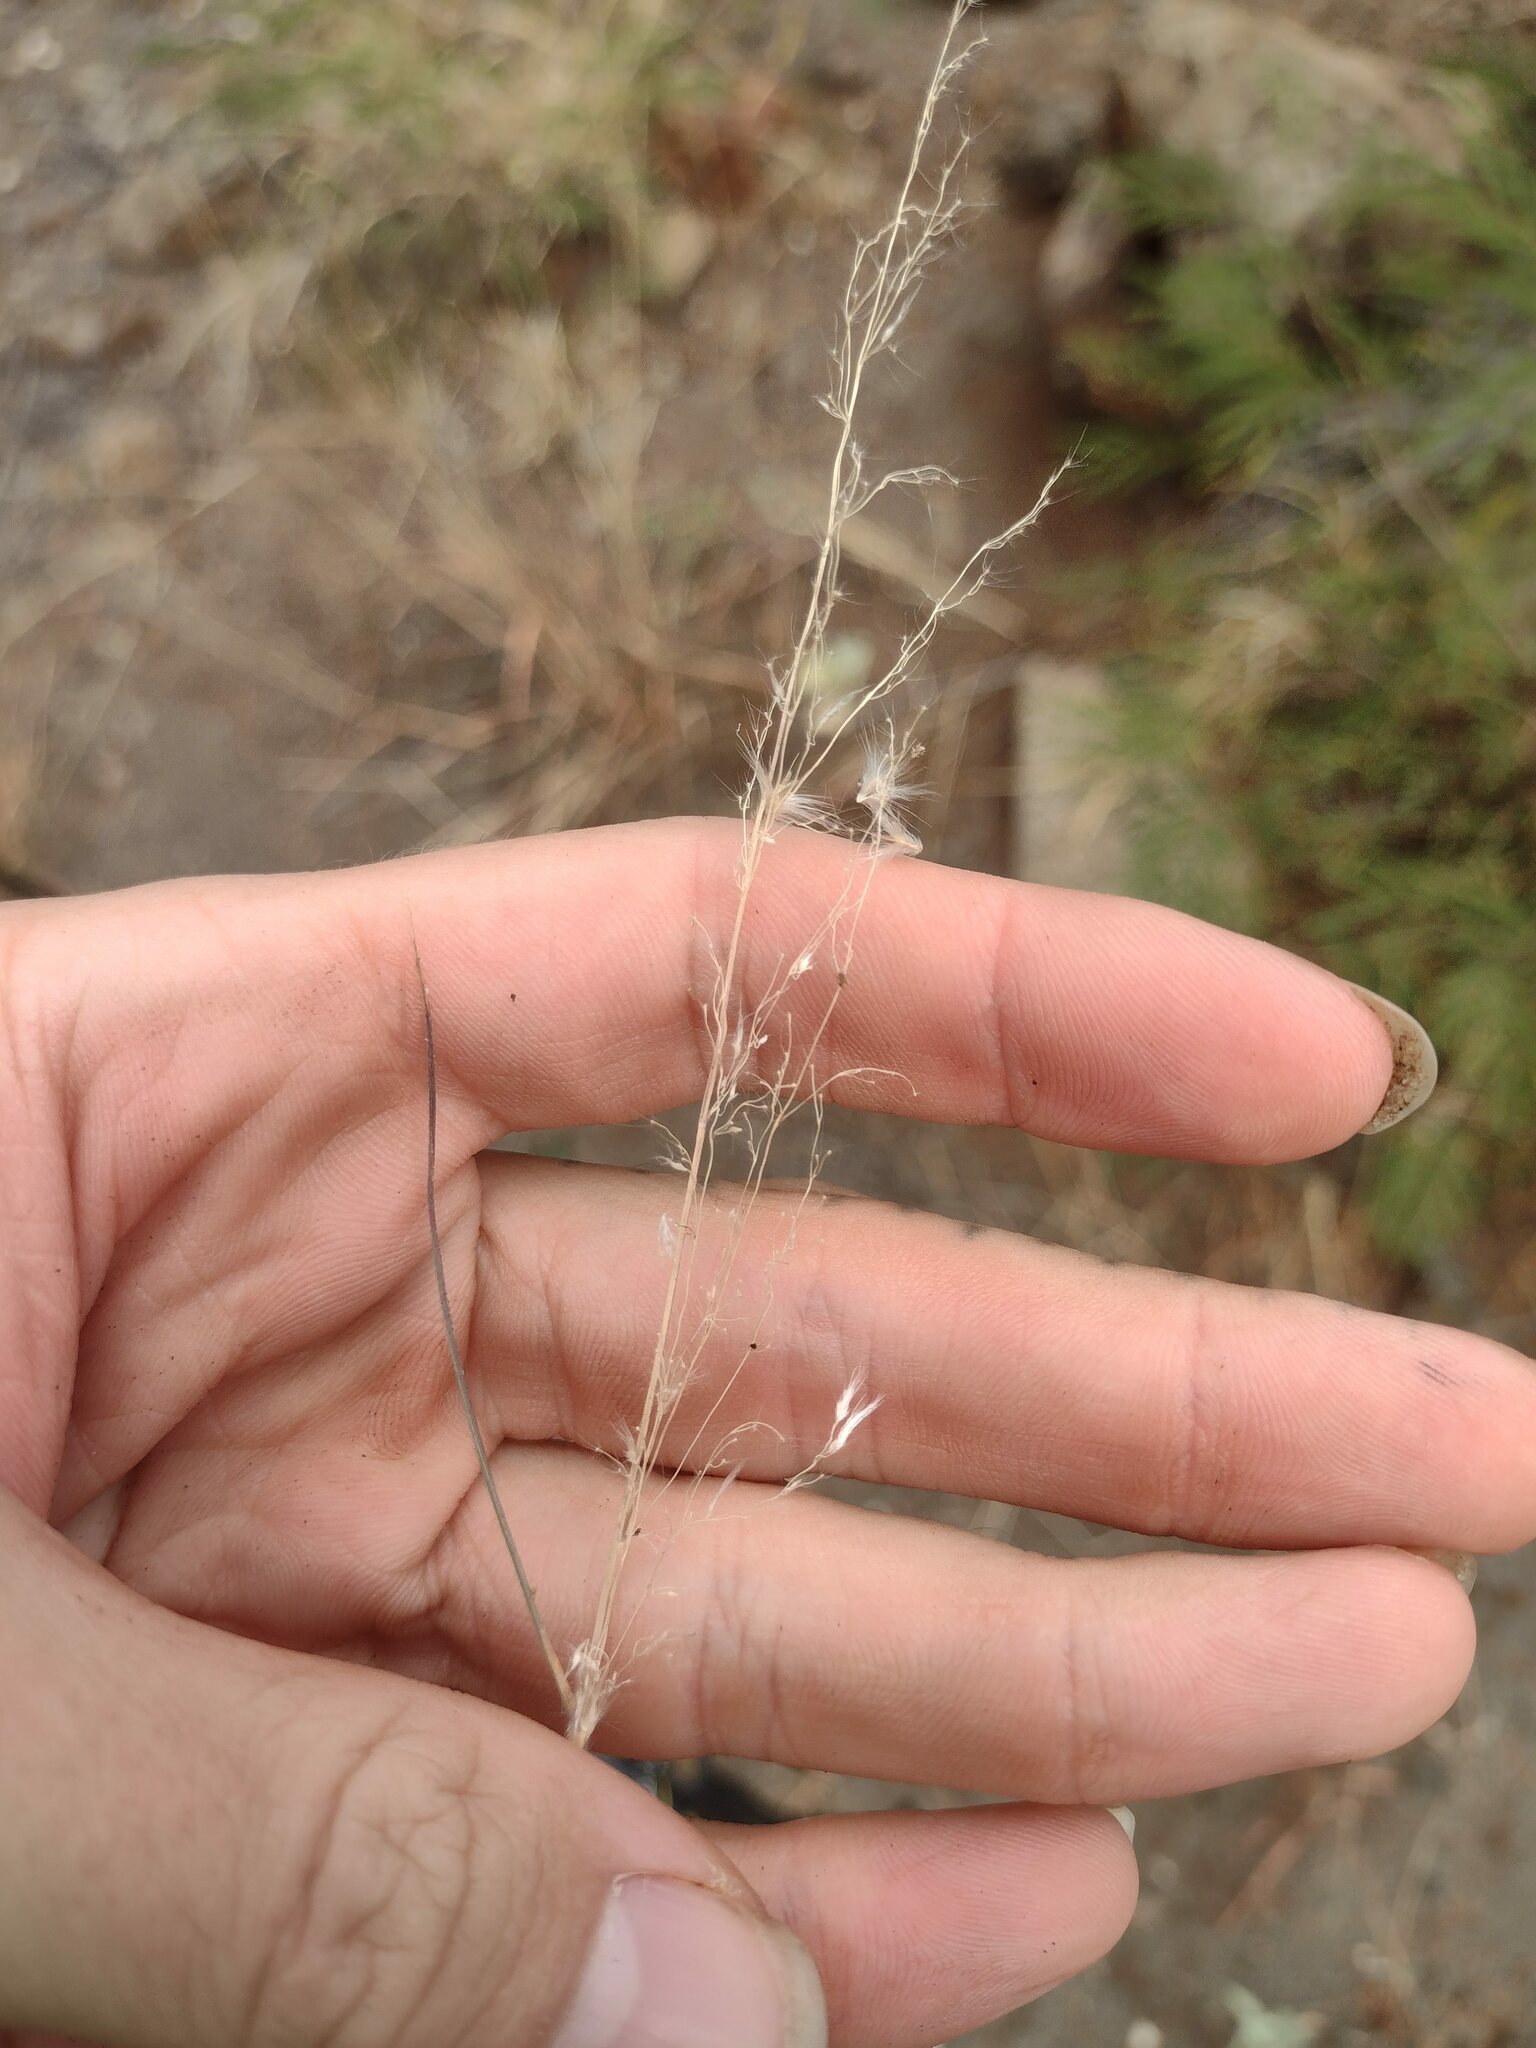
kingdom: Plantae
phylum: Tracheophyta
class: Liliopsida
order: Poales
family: Poaceae
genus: Melinis
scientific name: Melinis repens
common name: Rose natal grass
